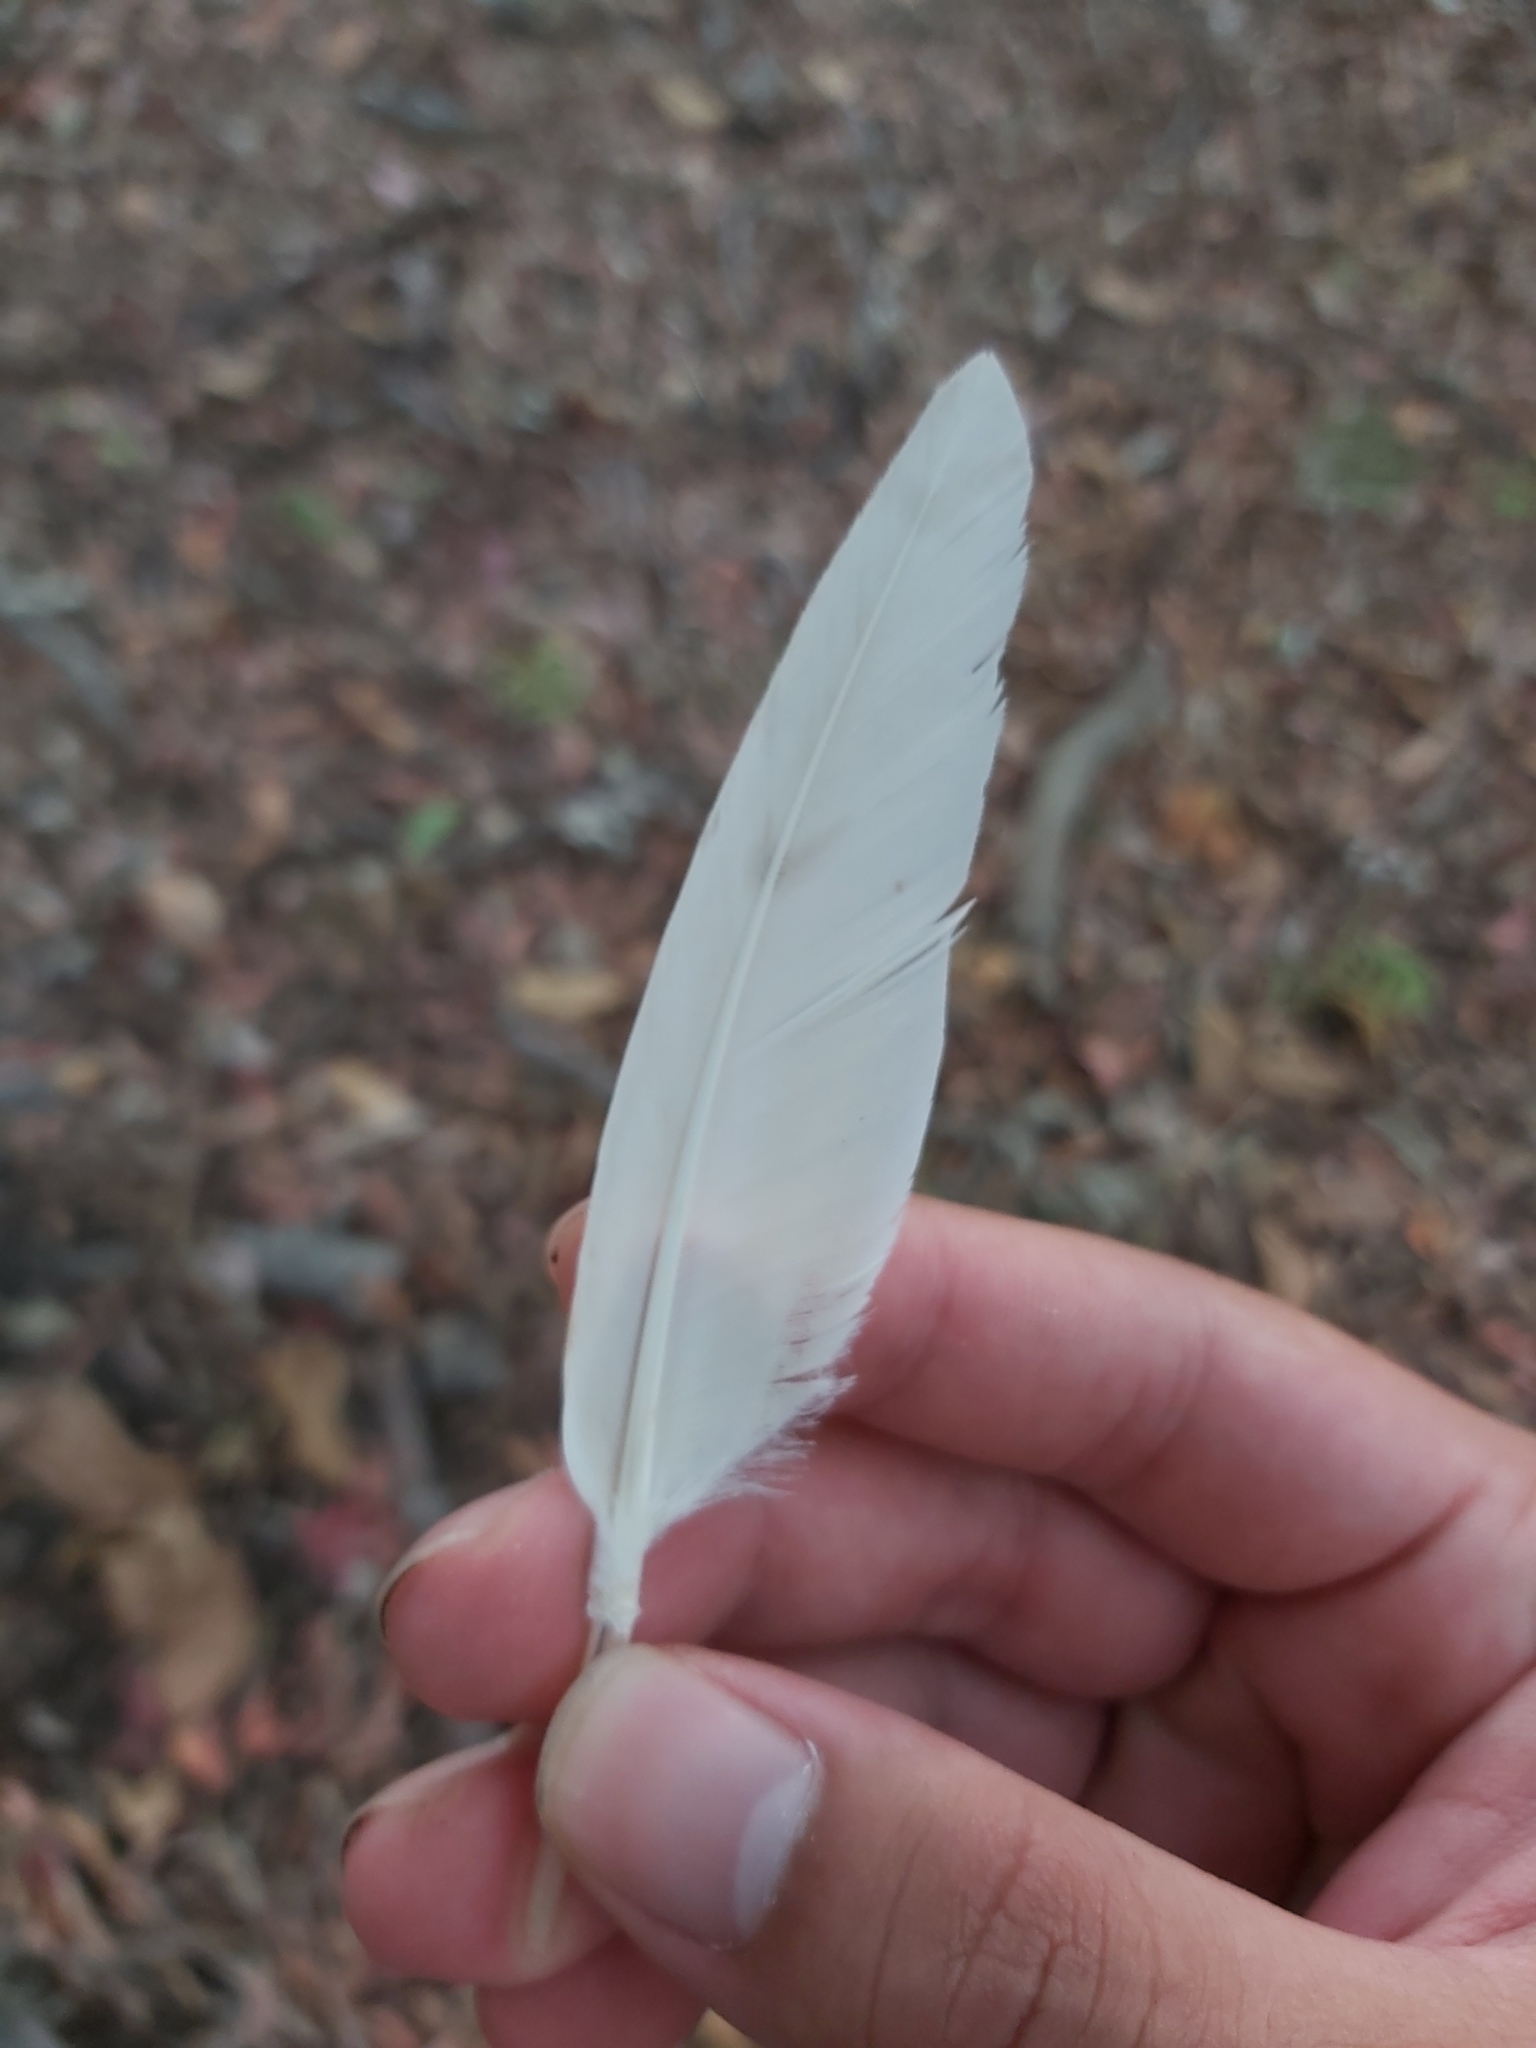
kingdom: Animalia
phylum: Chordata
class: Aves
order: Pelecaniformes
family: Threskiornithidae
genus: Threskiornis
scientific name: Threskiornis molucca
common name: Australian white ibis
